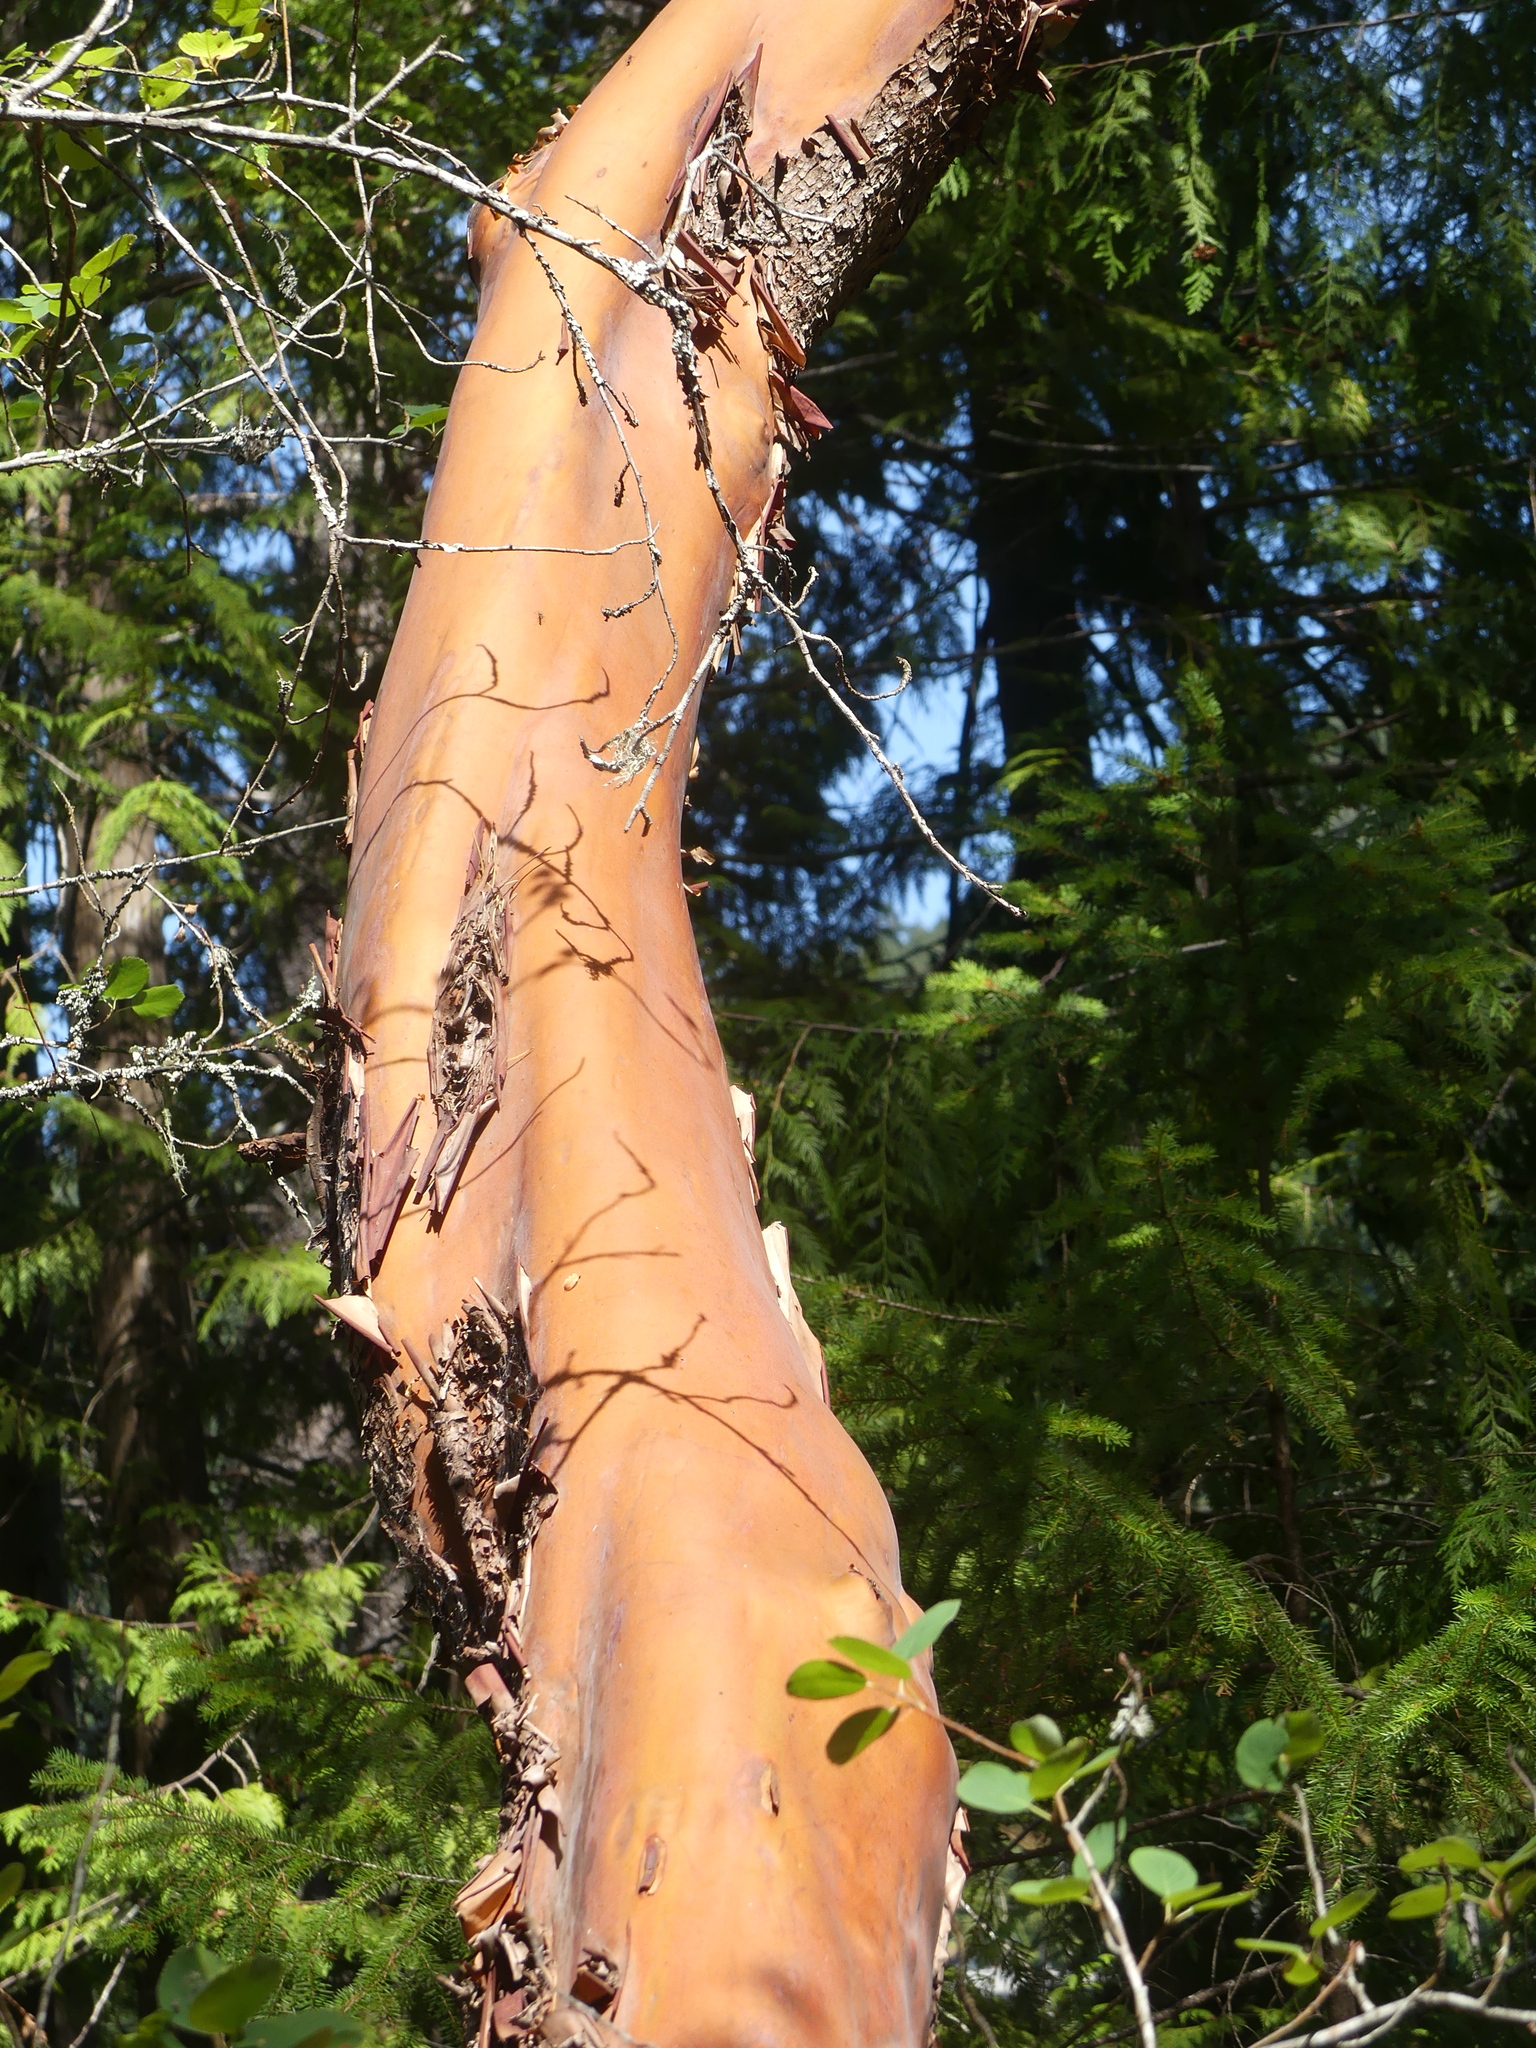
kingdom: Plantae
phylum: Tracheophyta
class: Magnoliopsida
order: Ericales
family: Ericaceae
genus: Arbutus
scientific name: Arbutus menziesii
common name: Pacific madrone
